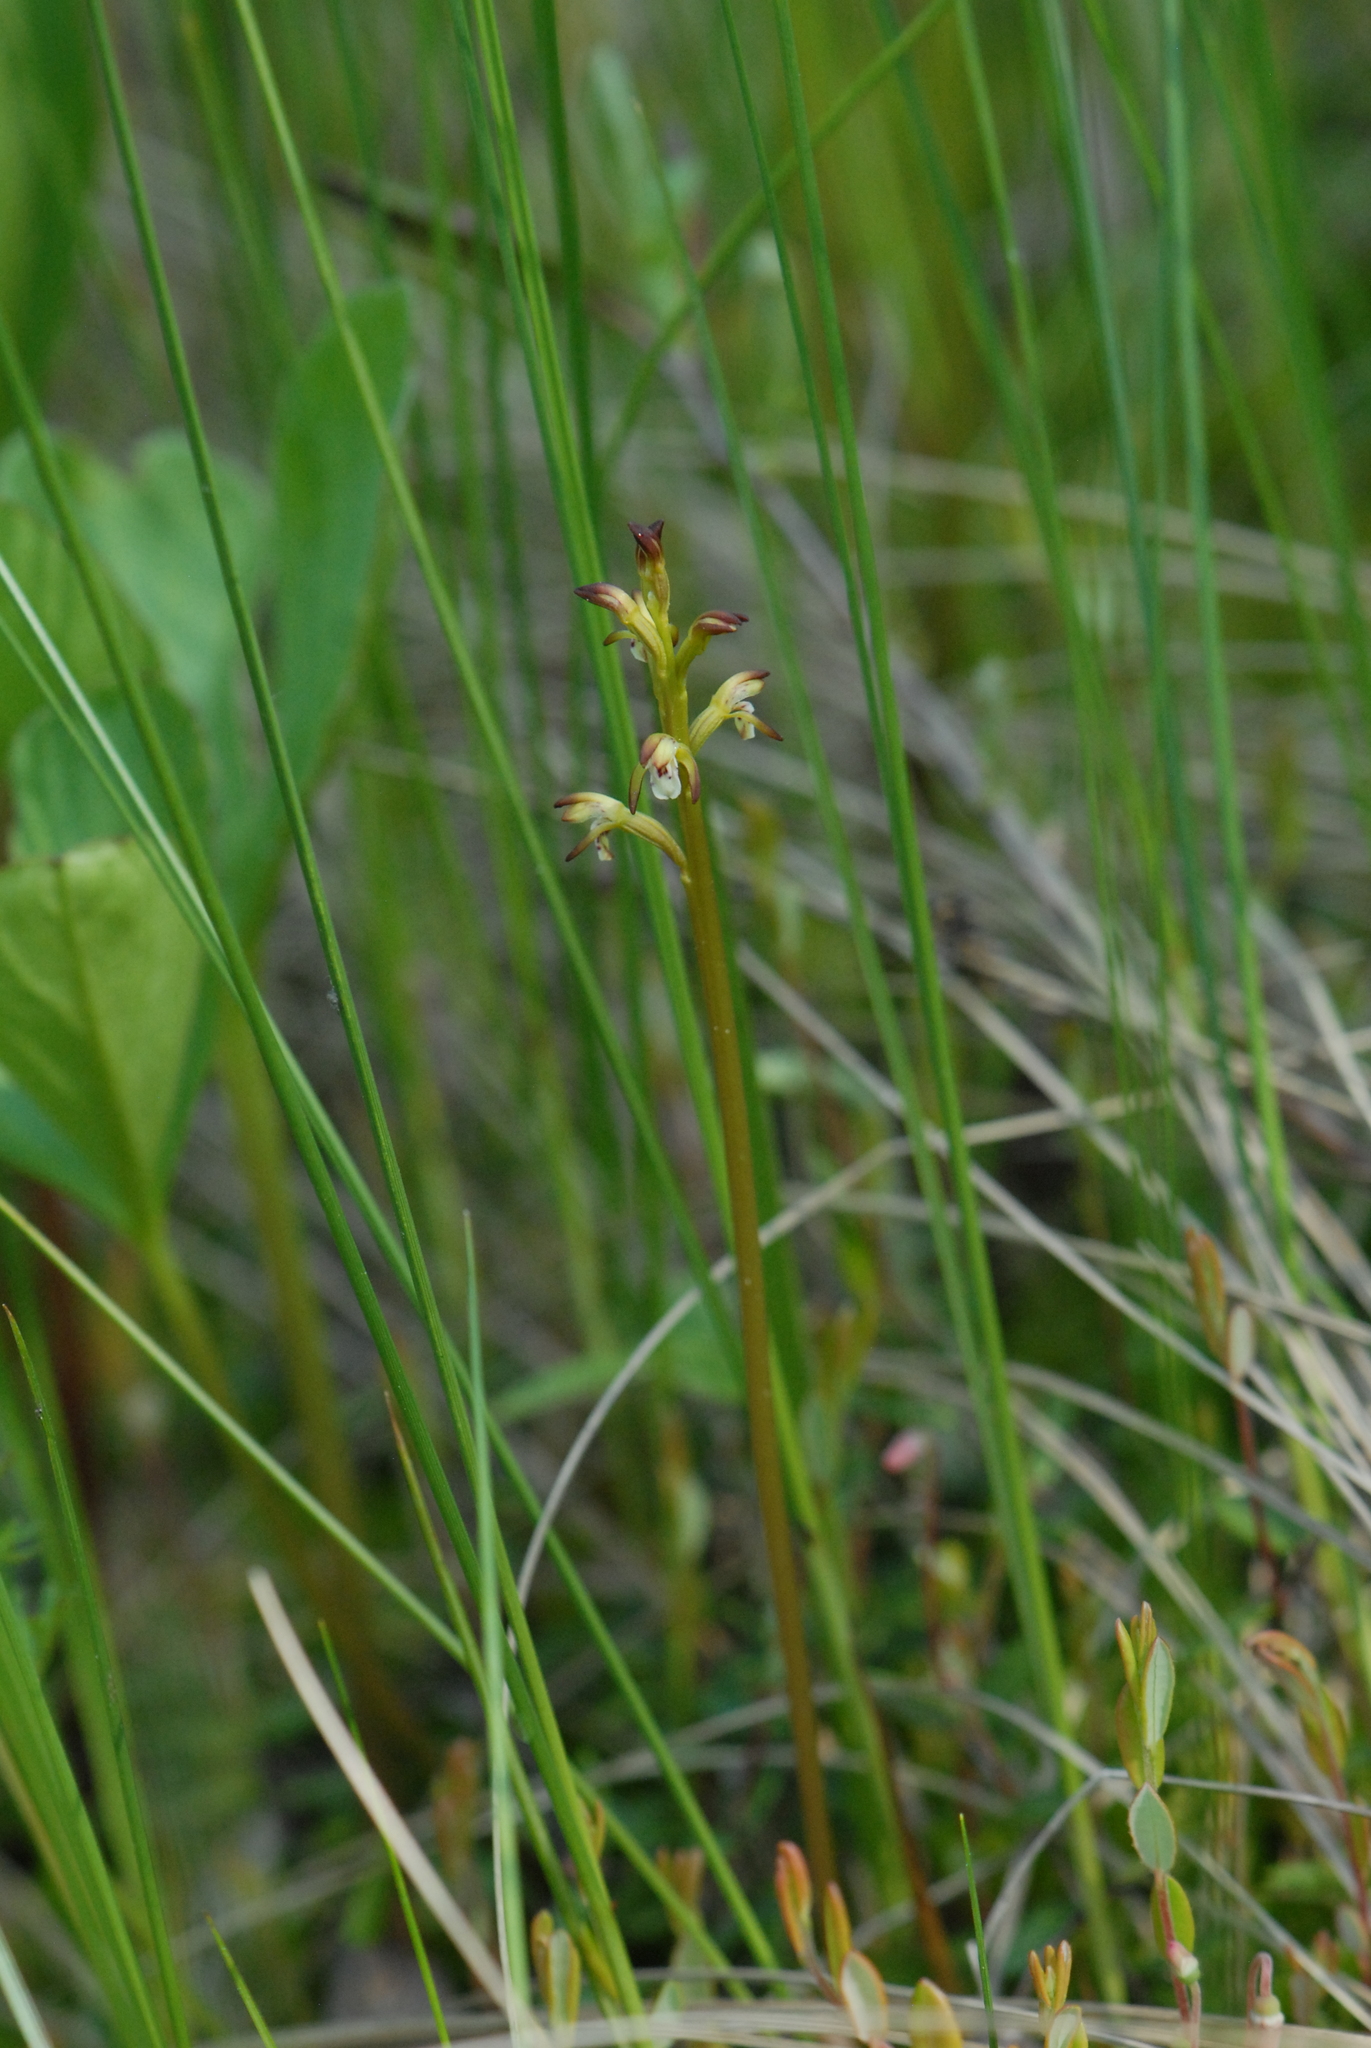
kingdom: Plantae
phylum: Tracheophyta
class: Liliopsida
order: Asparagales
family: Orchidaceae
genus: Corallorhiza
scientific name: Corallorhiza trifida
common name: Yellow coralroot
